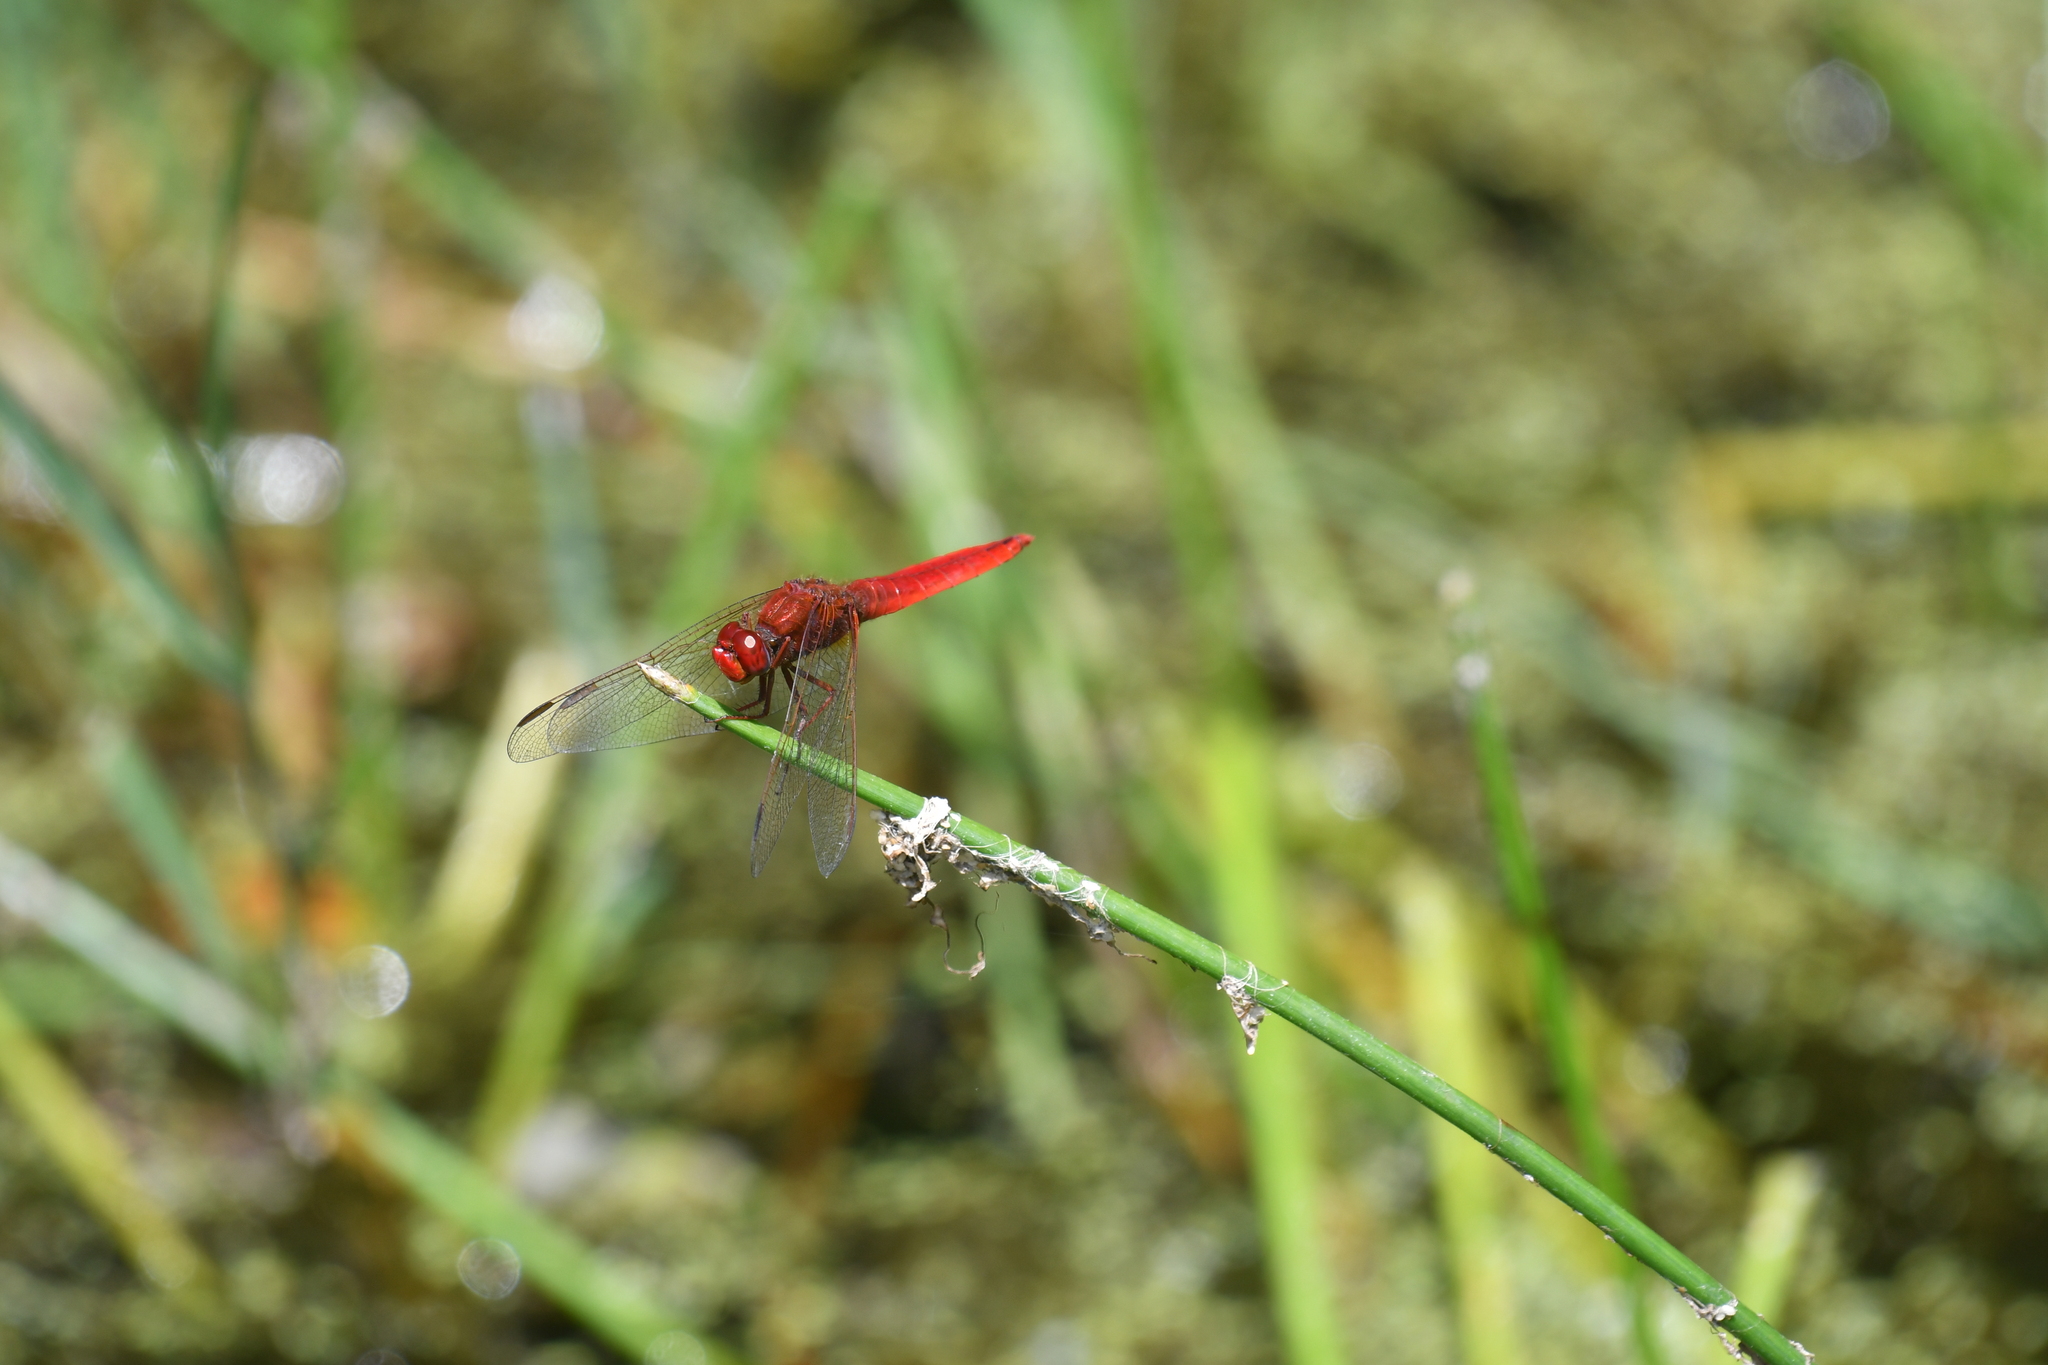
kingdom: Animalia
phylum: Arthropoda
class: Insecta
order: Odonata
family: Libellulidae
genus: Crocothemis
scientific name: Crocothemis erythraea
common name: Scarlet dragonfly
